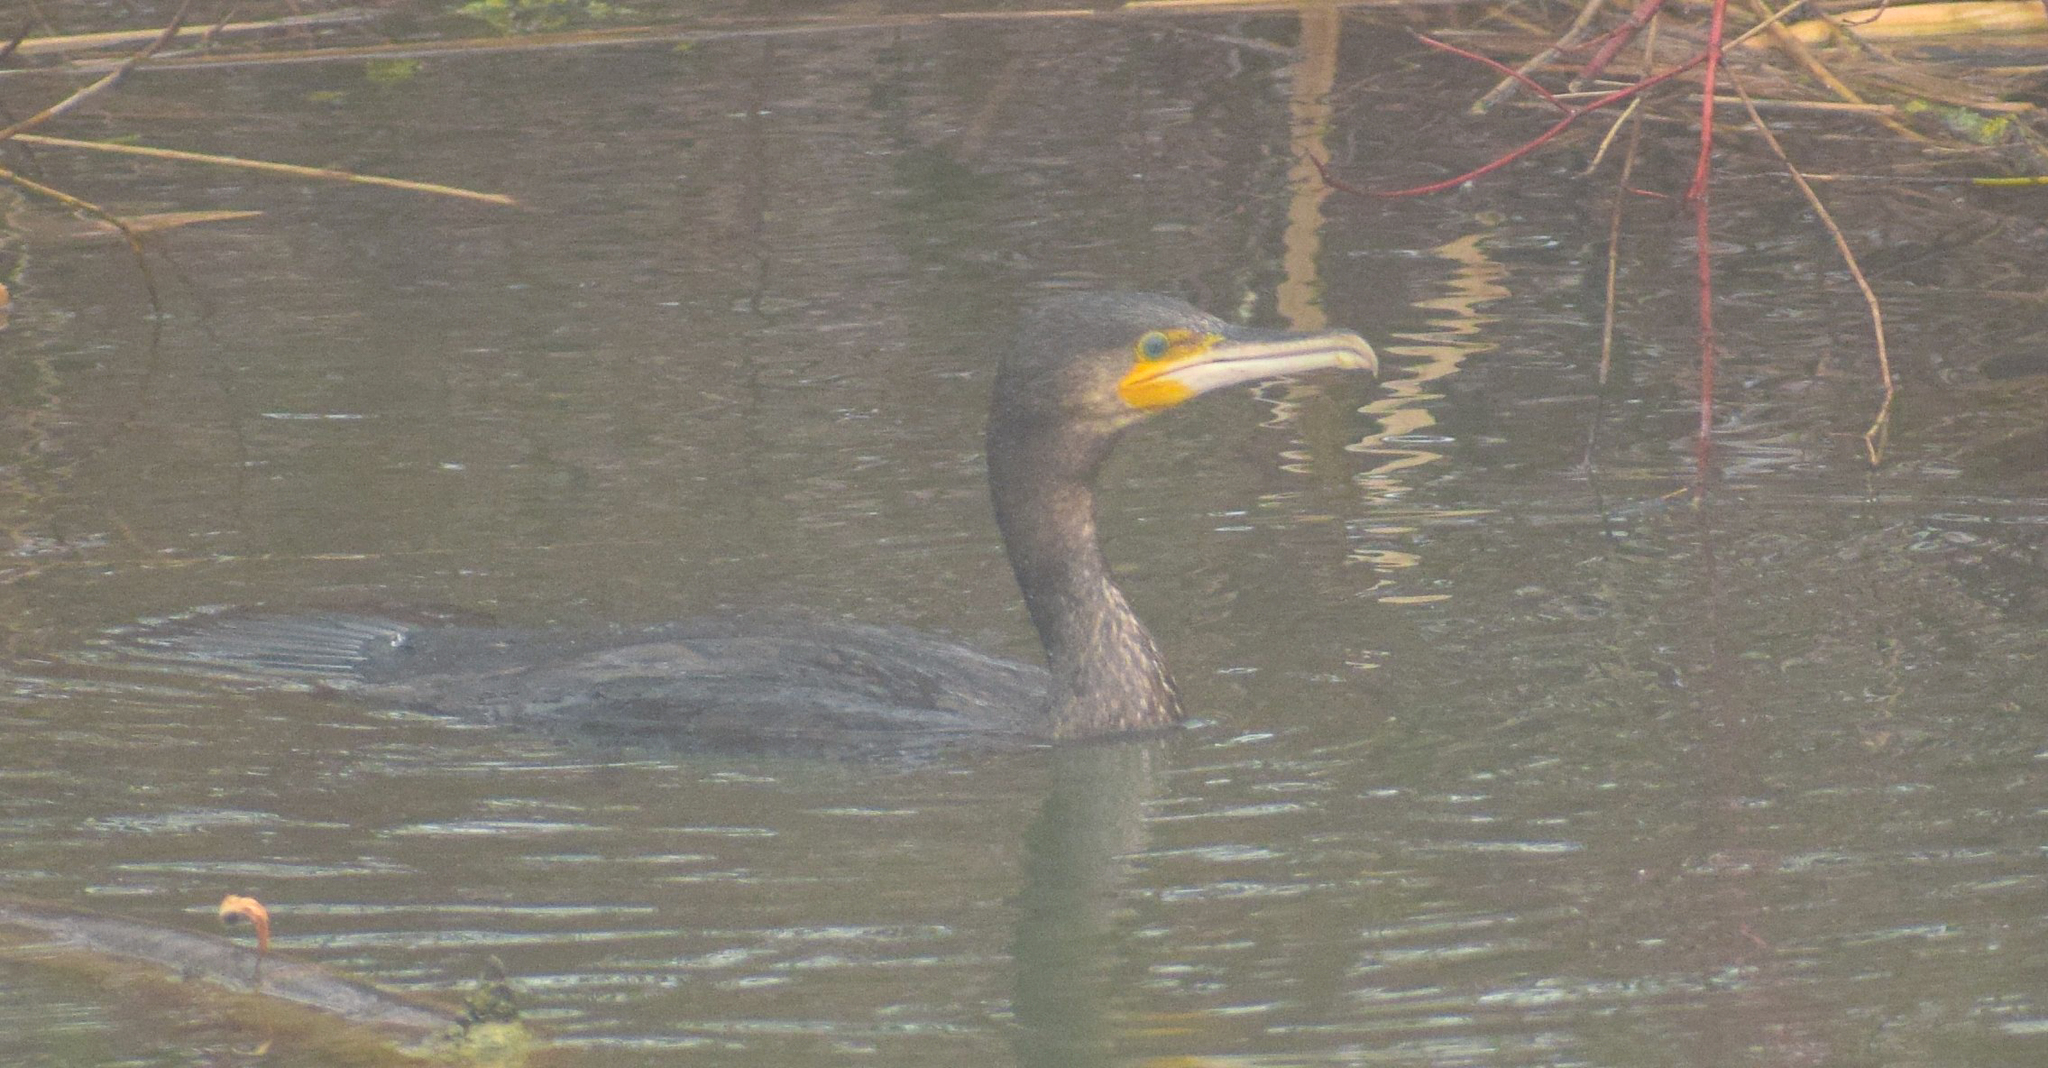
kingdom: Animalia
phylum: Chordata
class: Aves
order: Suliformes
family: Phalacrocoracidae
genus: Phalacrocorax
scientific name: Phalacrocorax carbo
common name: Great cormorant
